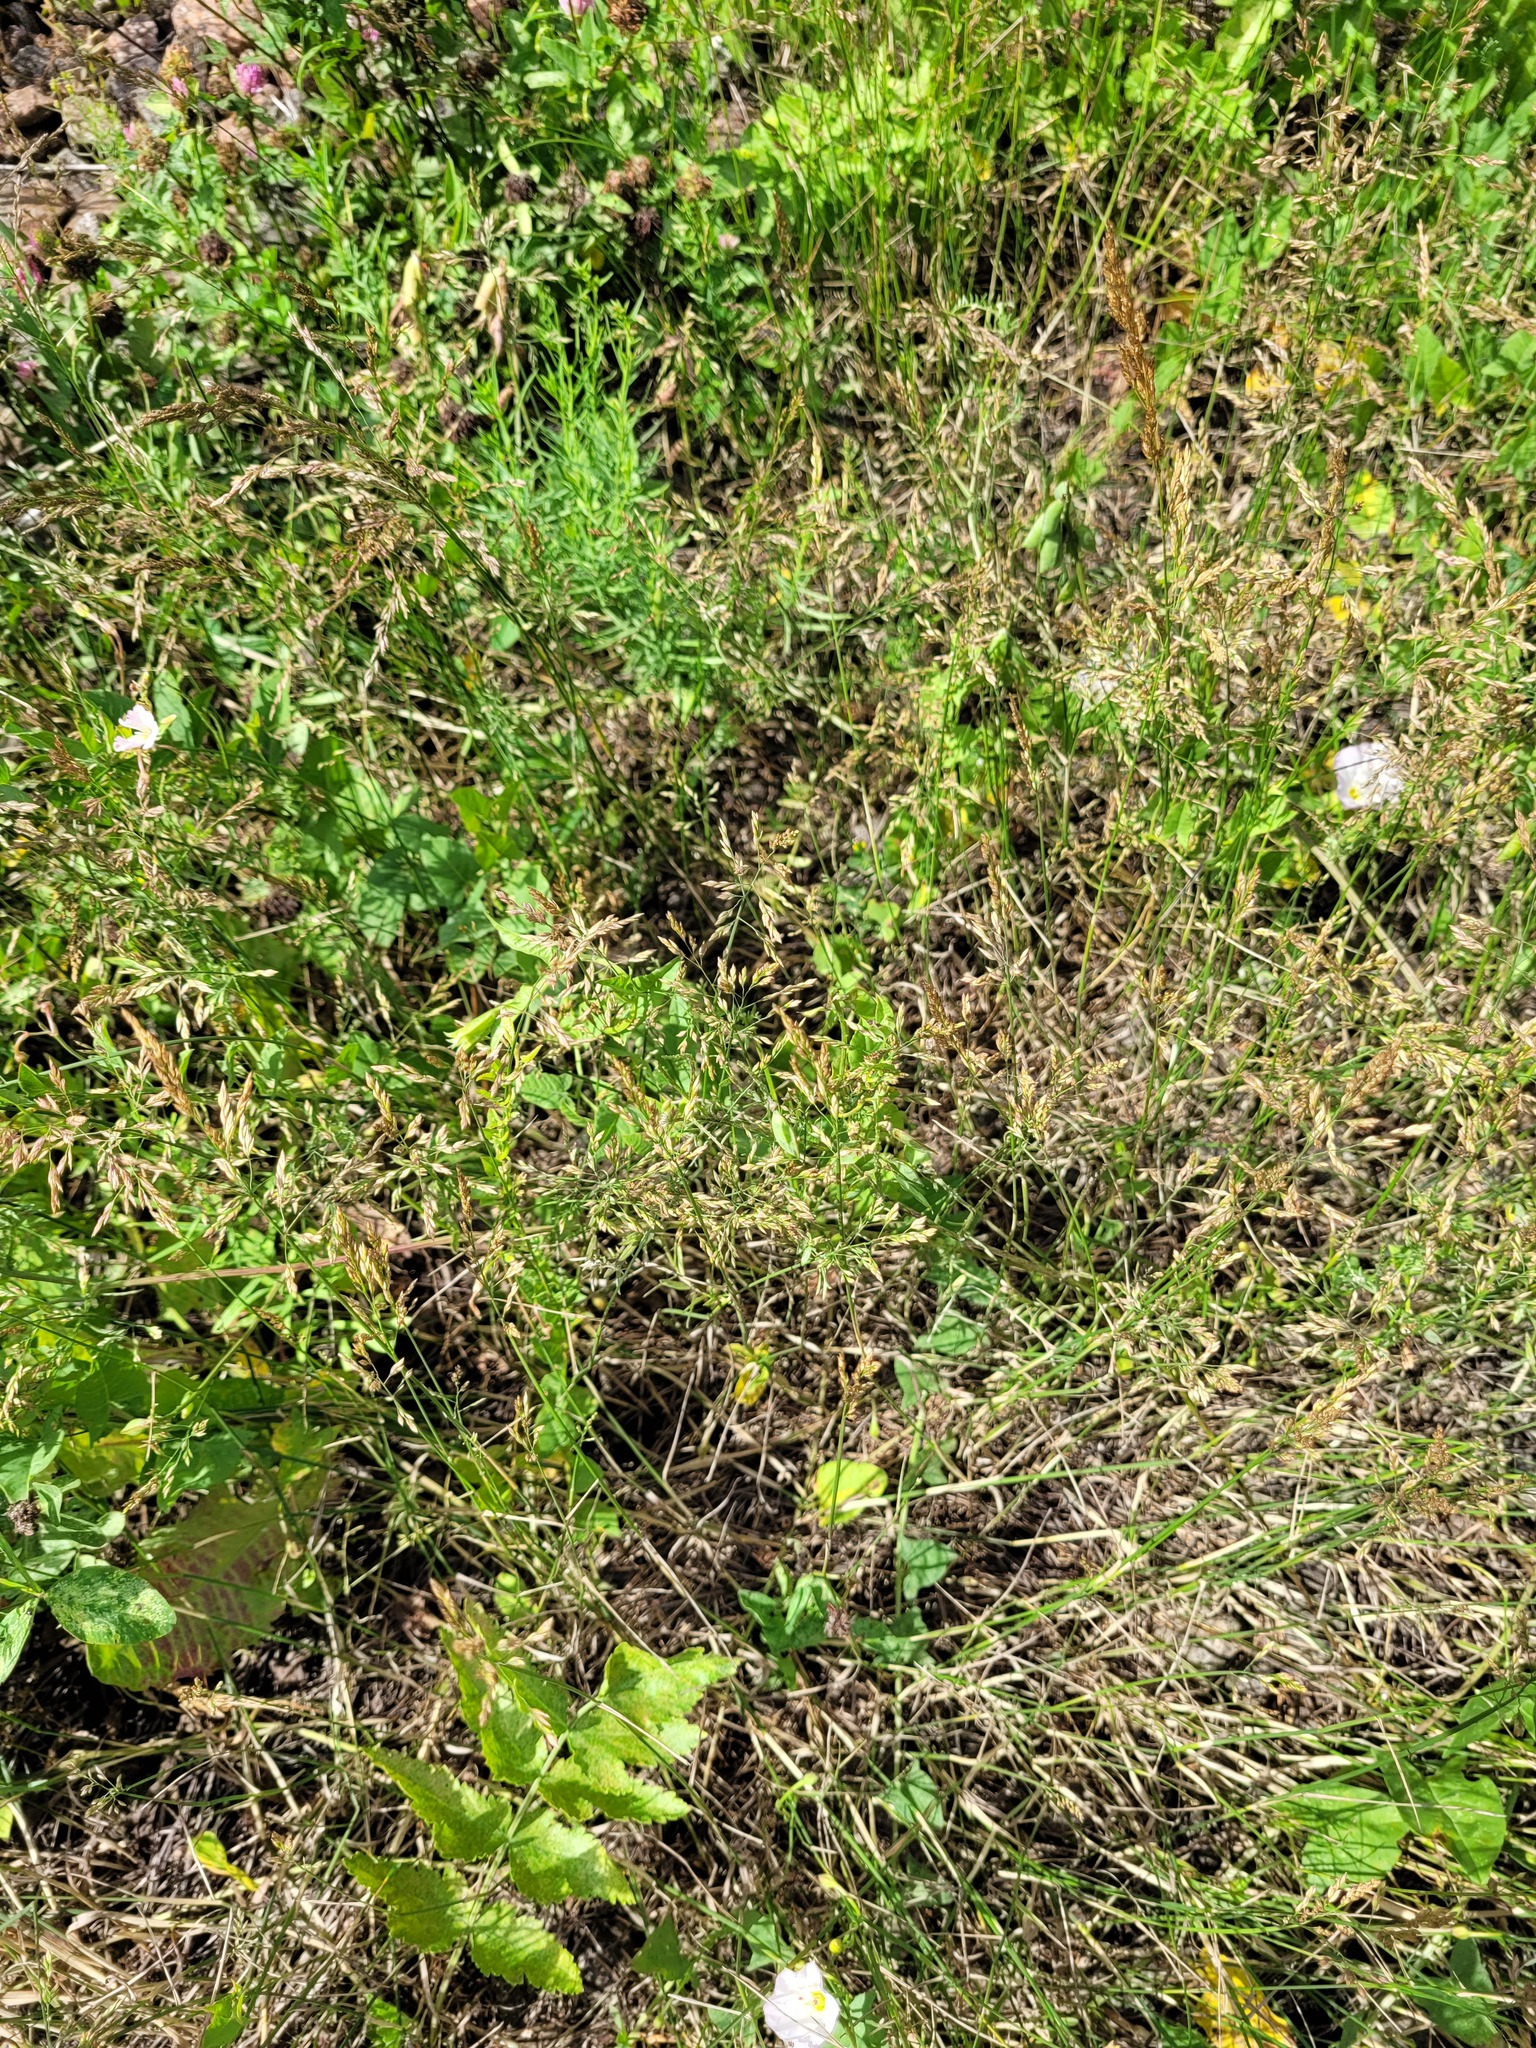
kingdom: Plantae
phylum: Tracheophyta
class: Liliopsida
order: Poales
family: Poaceae
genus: Poa
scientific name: Poa compressa
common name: Canada bluegrass
